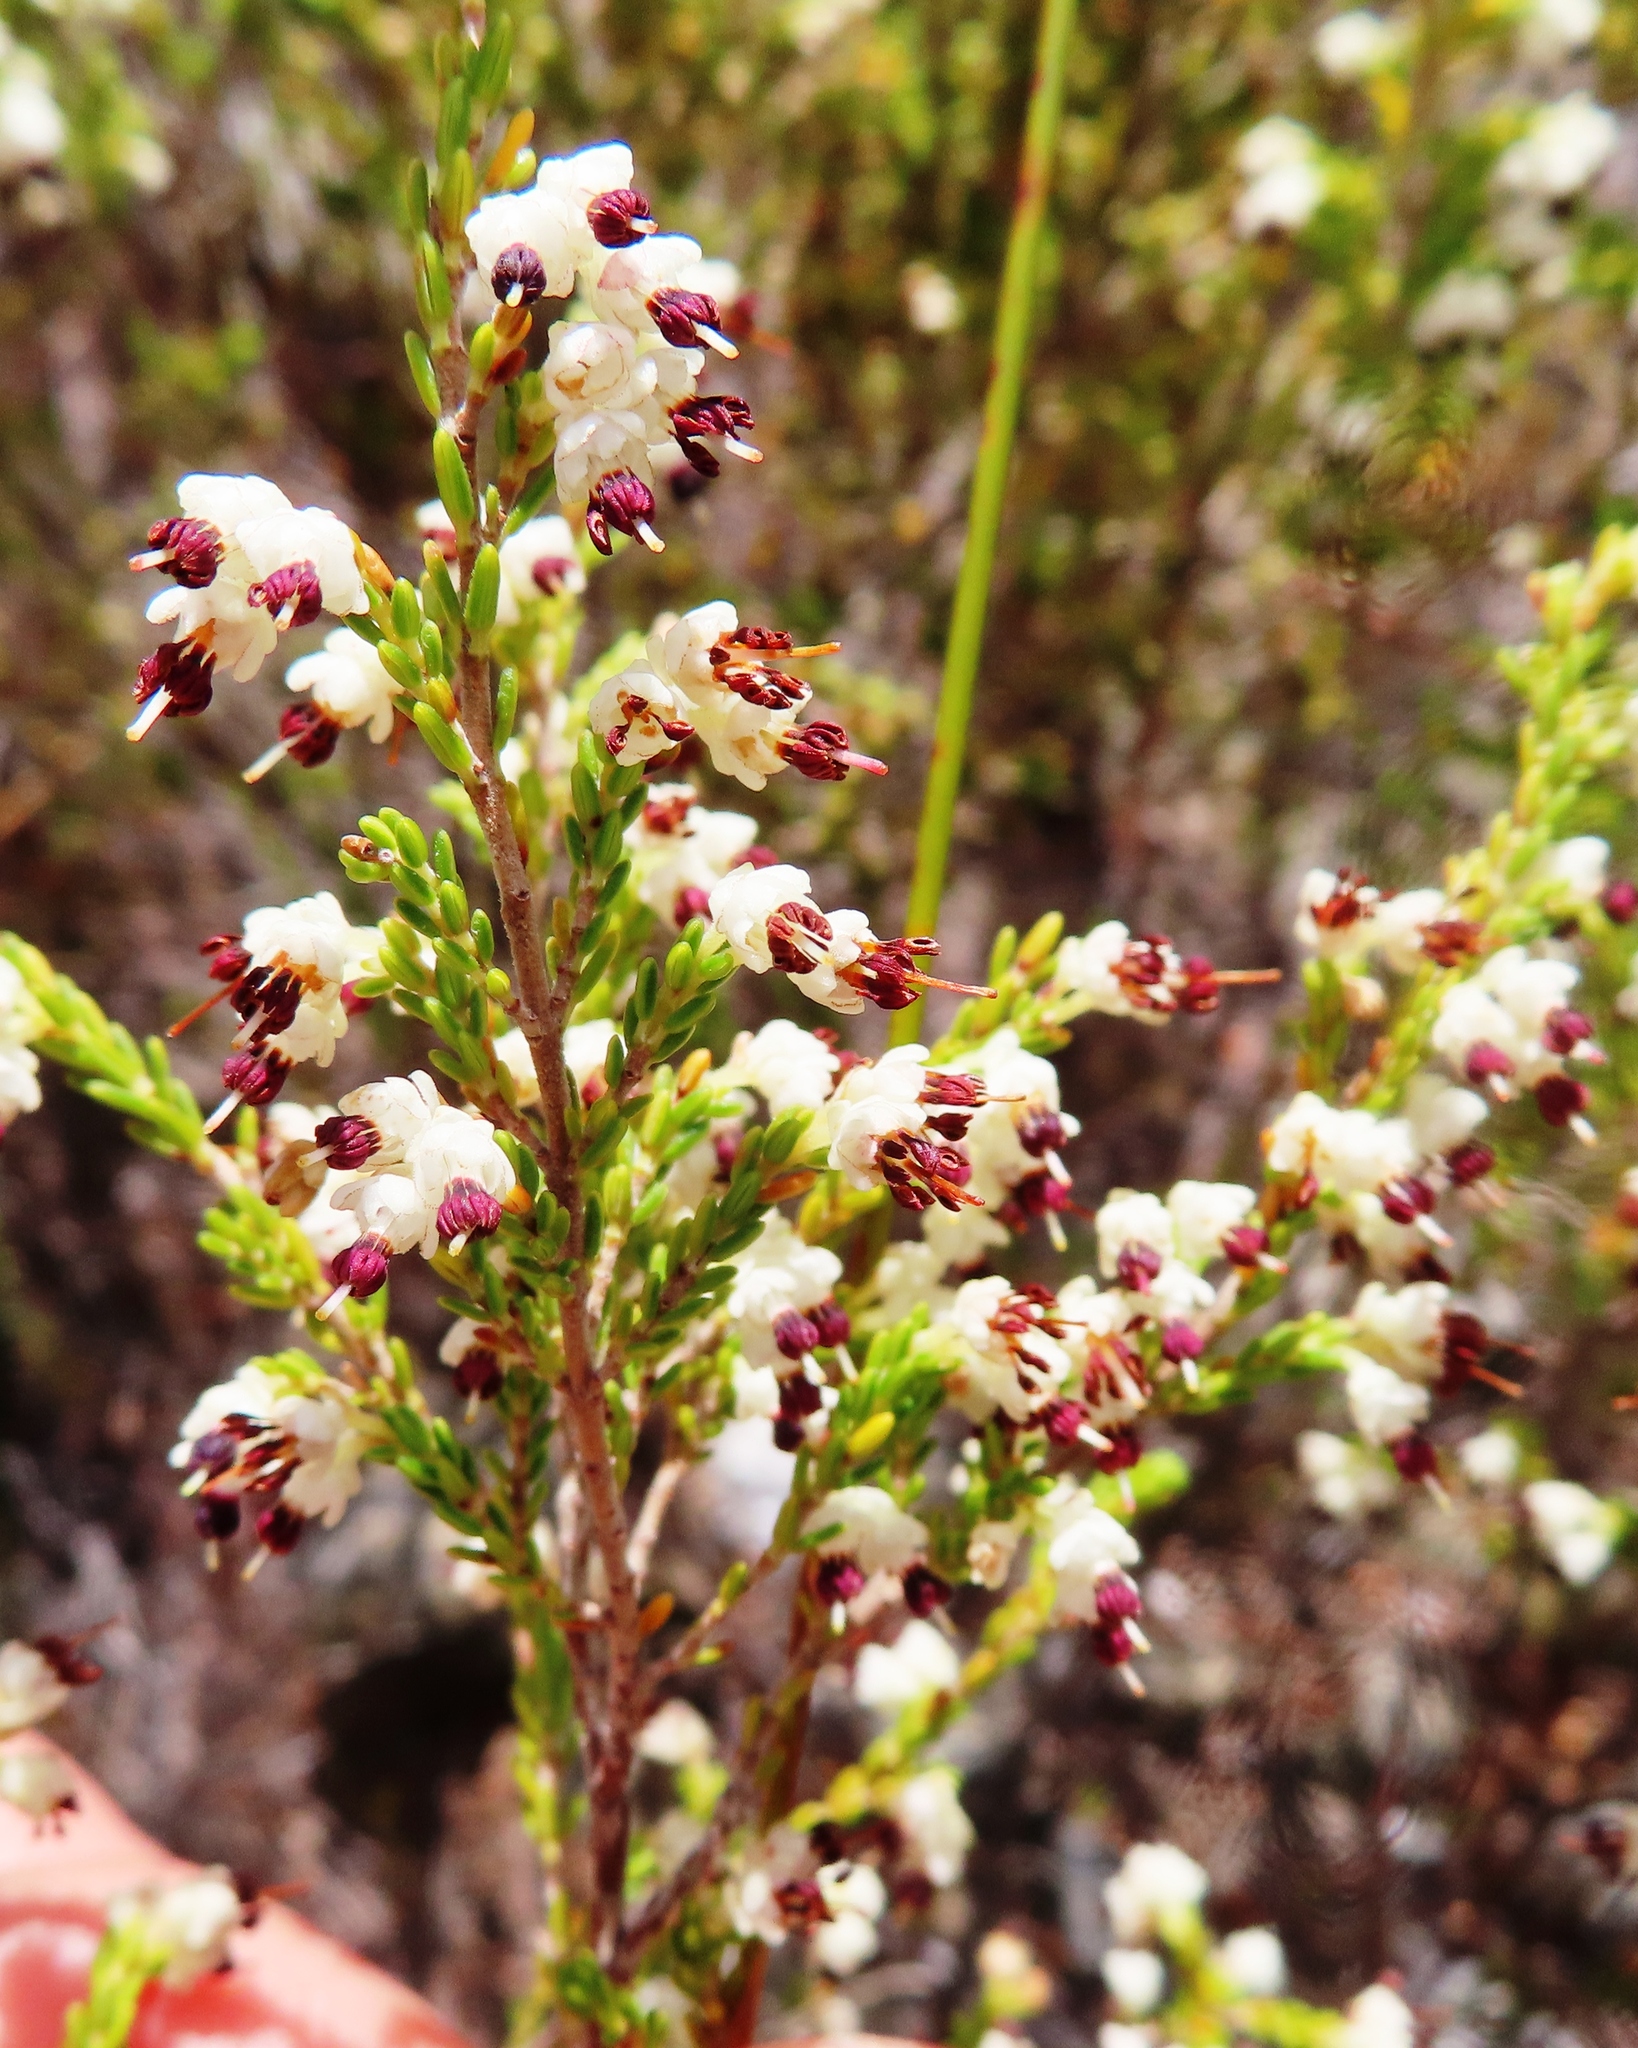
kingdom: Plantae
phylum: Tracheophyta
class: Magnoliopsida
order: Ericales
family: Ericaceae
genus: Erica
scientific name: Erica suffulta
